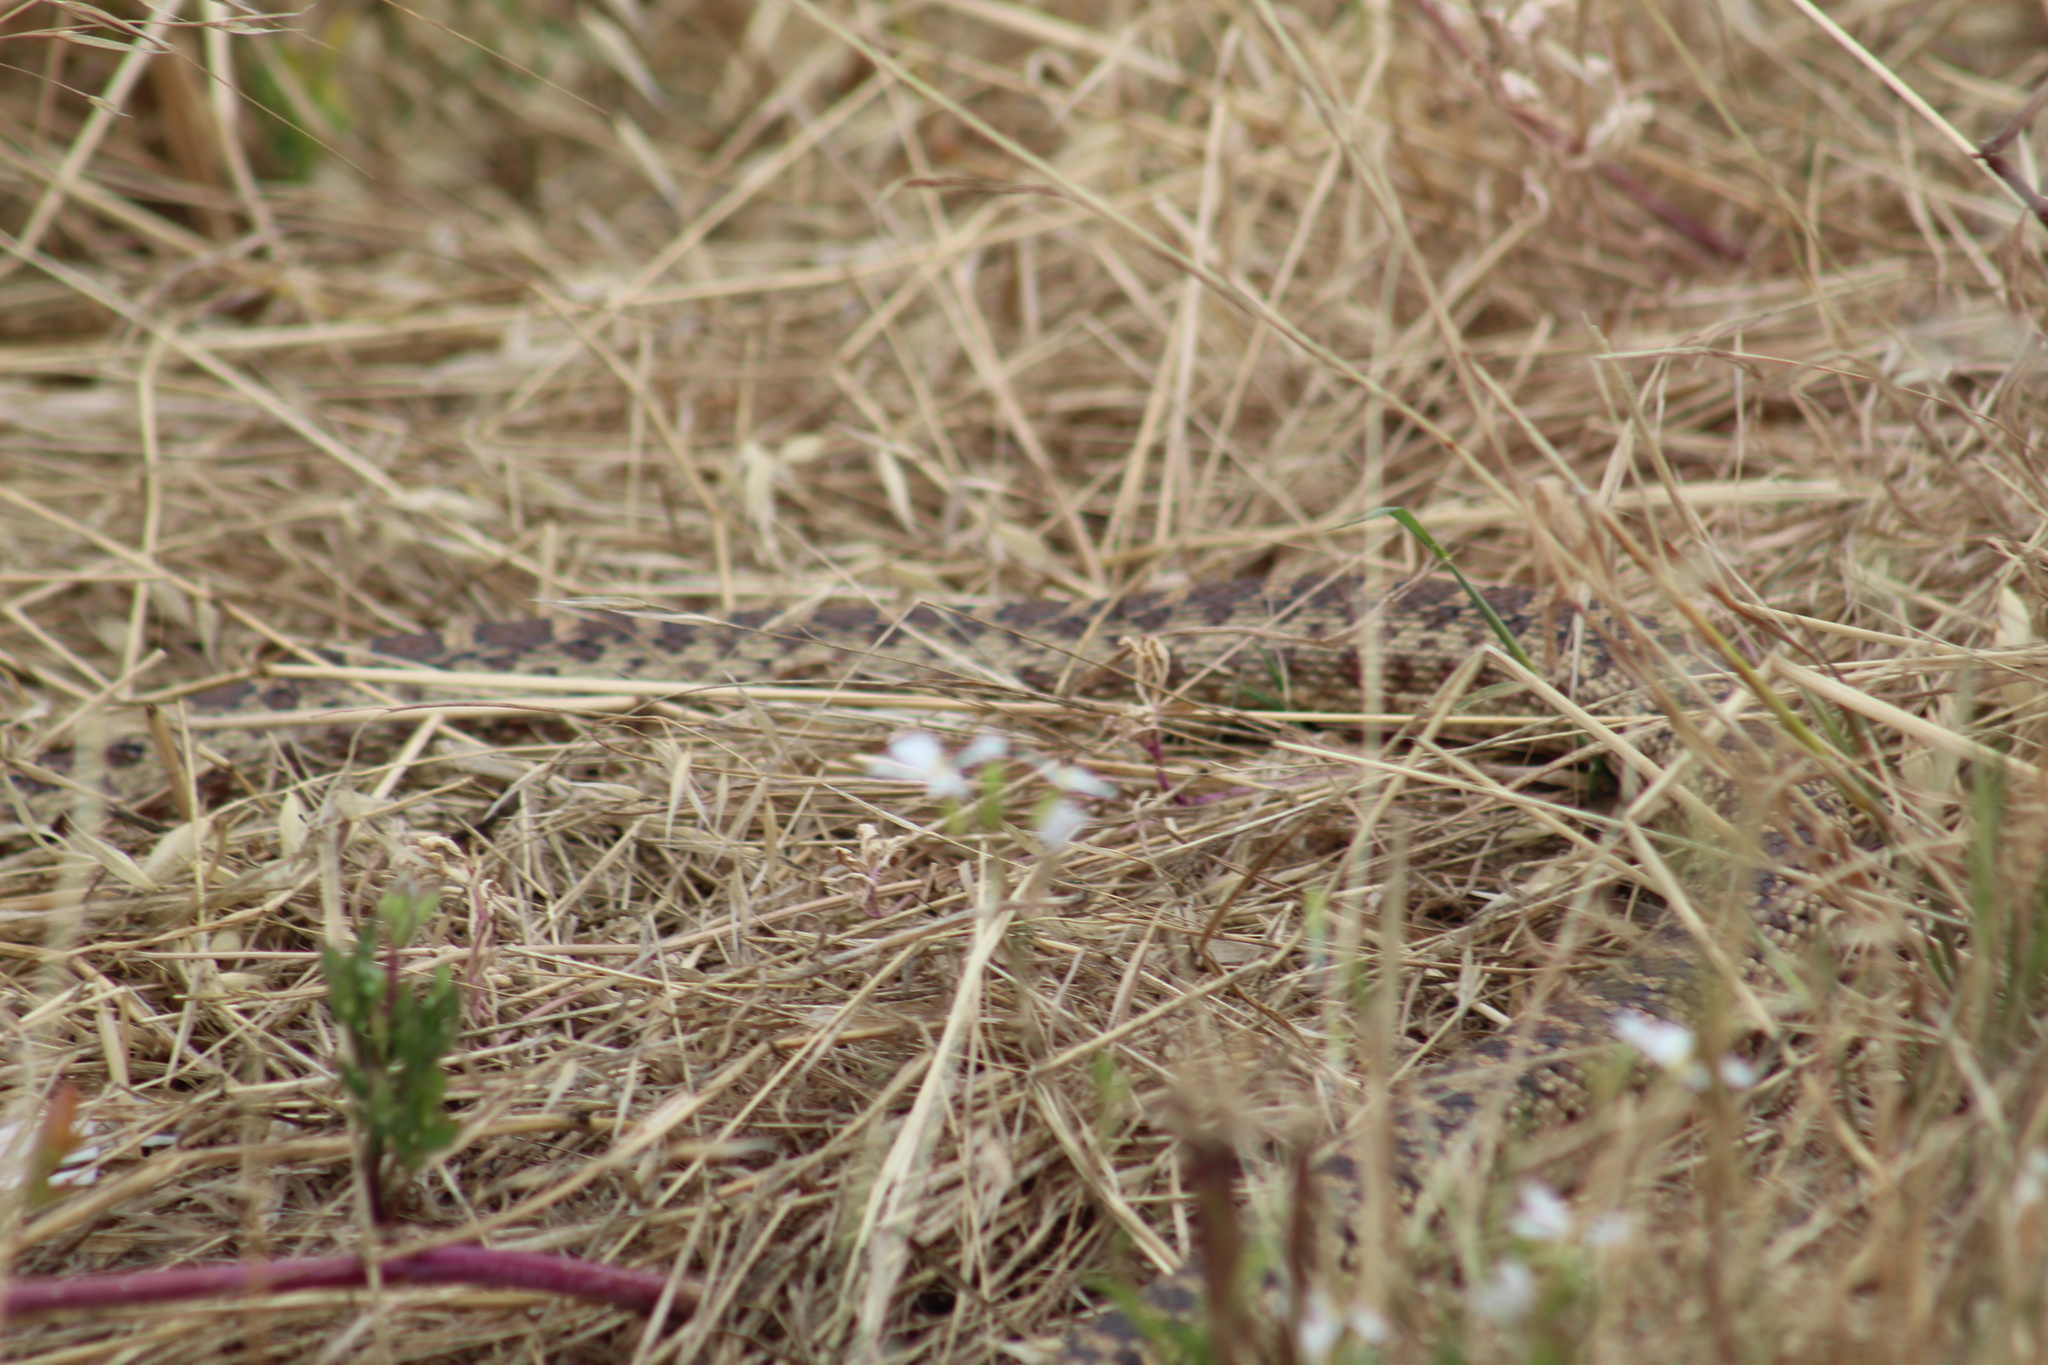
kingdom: Animalia
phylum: Chordata
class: Squamata
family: Colubridae
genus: Pituophis
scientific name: Pituophis catenifer
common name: Gopher snake
